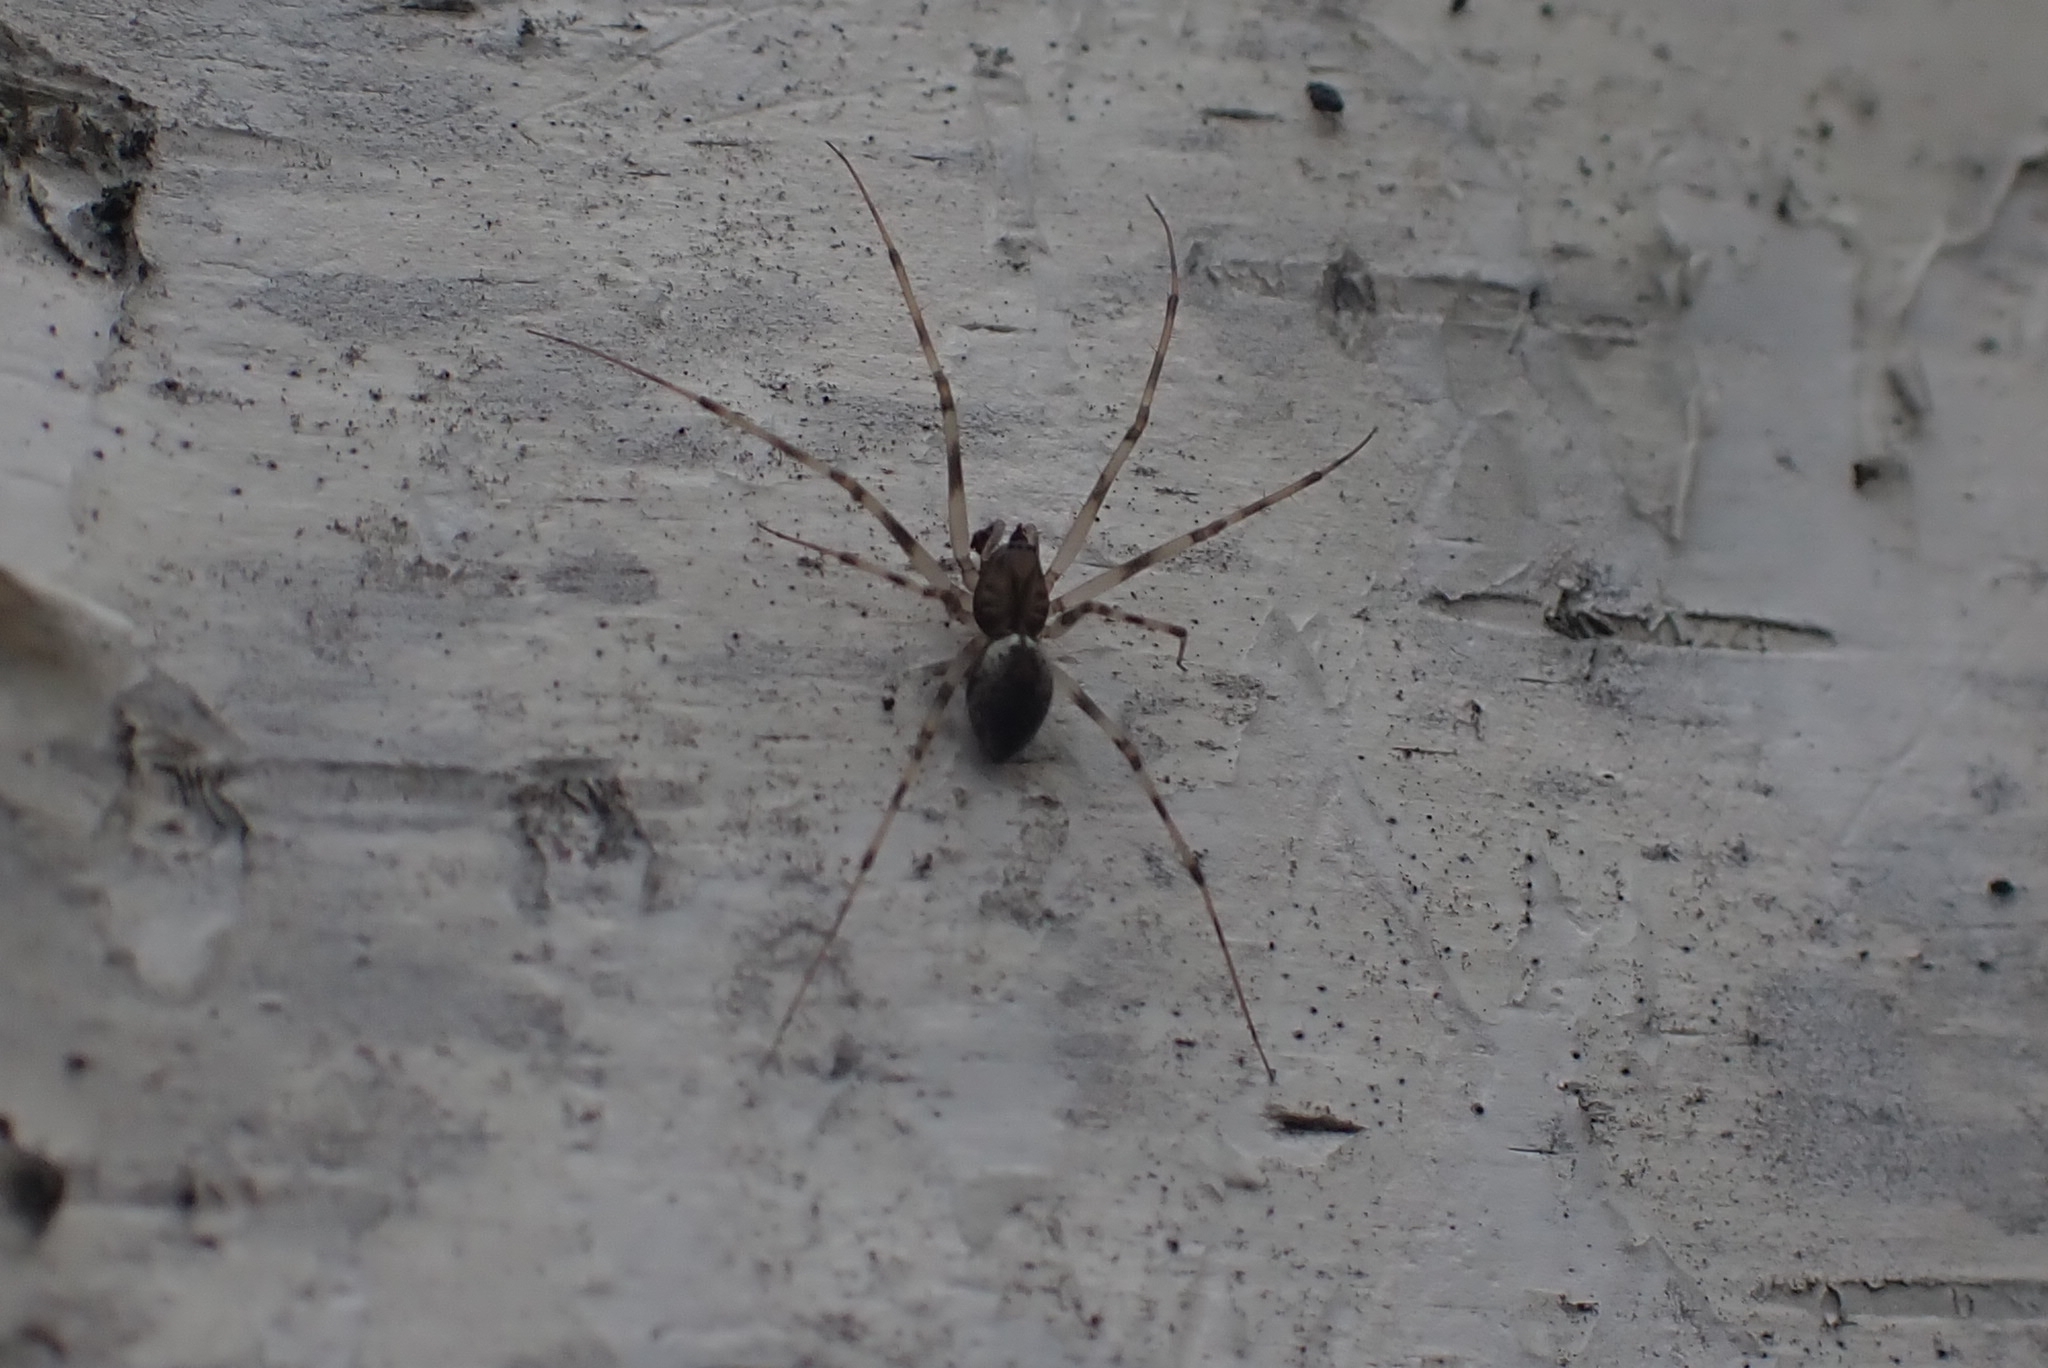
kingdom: Animalia
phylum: Arthropoda
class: Arachnida
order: Araneae
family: Linyphiidae
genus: Drapetisca
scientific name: Drapetisca socialis
